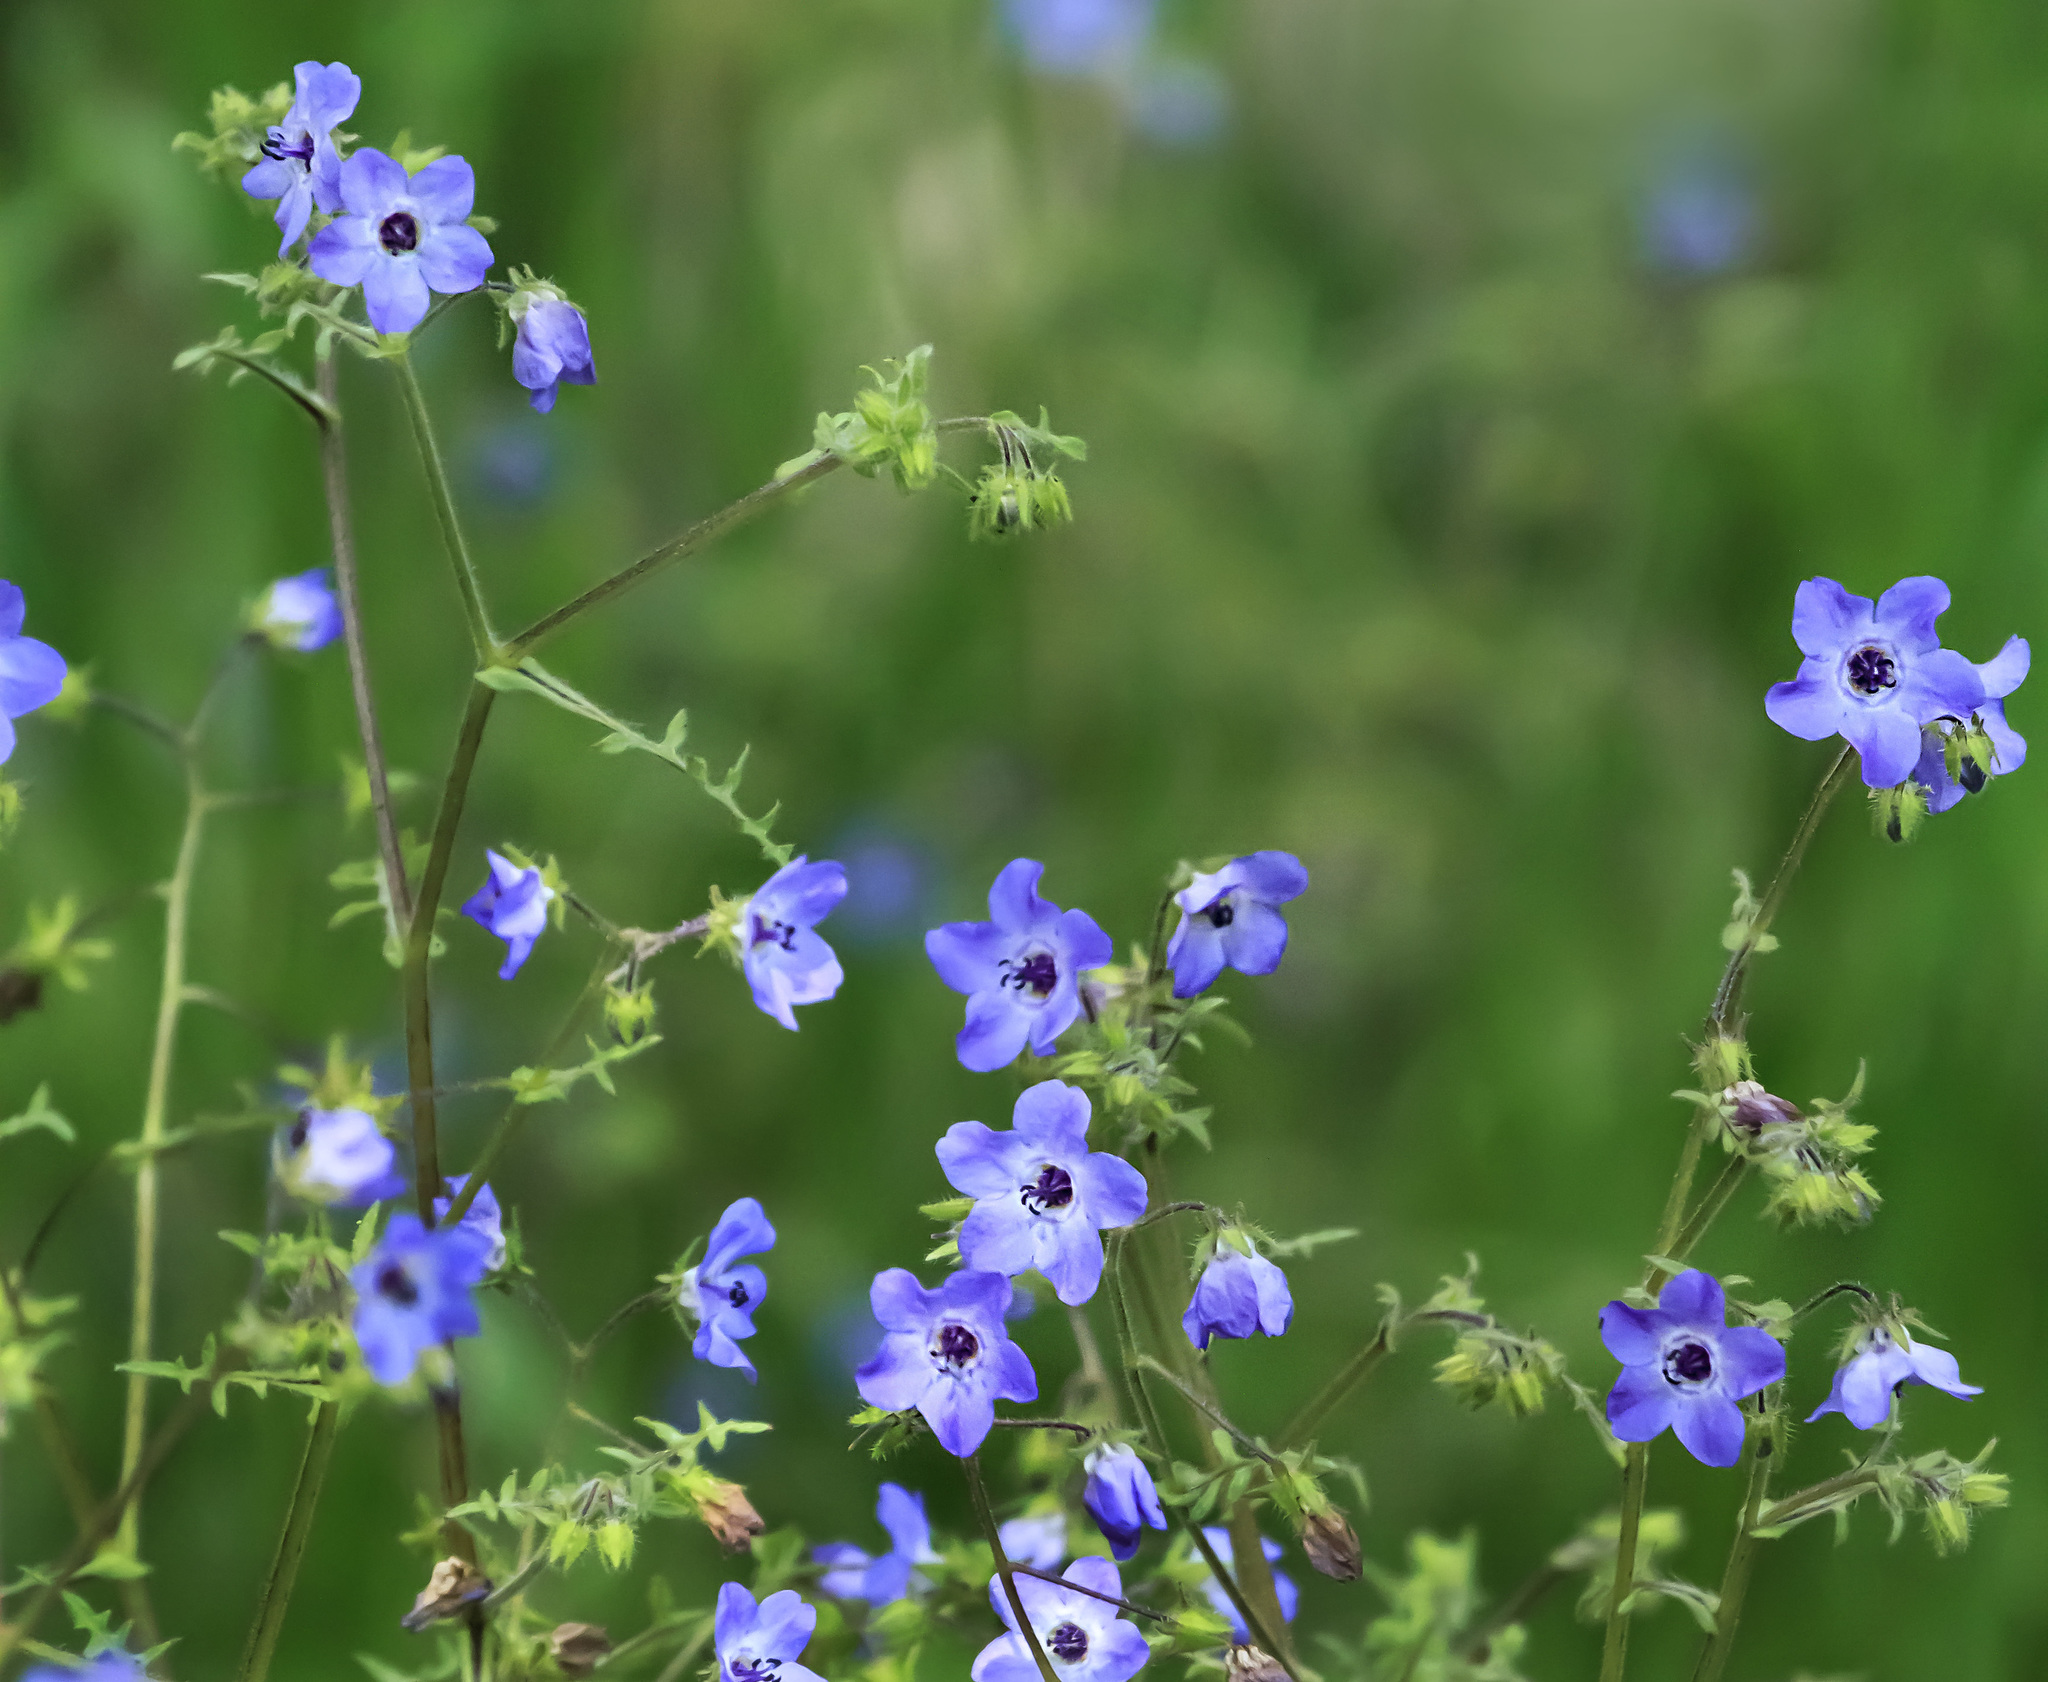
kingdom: Plantae
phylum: Tracheophyta
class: Magnoliopsida
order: Boraginales
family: Hydrophyllaceae
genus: Pholistoma
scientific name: Pholistoma auritum
